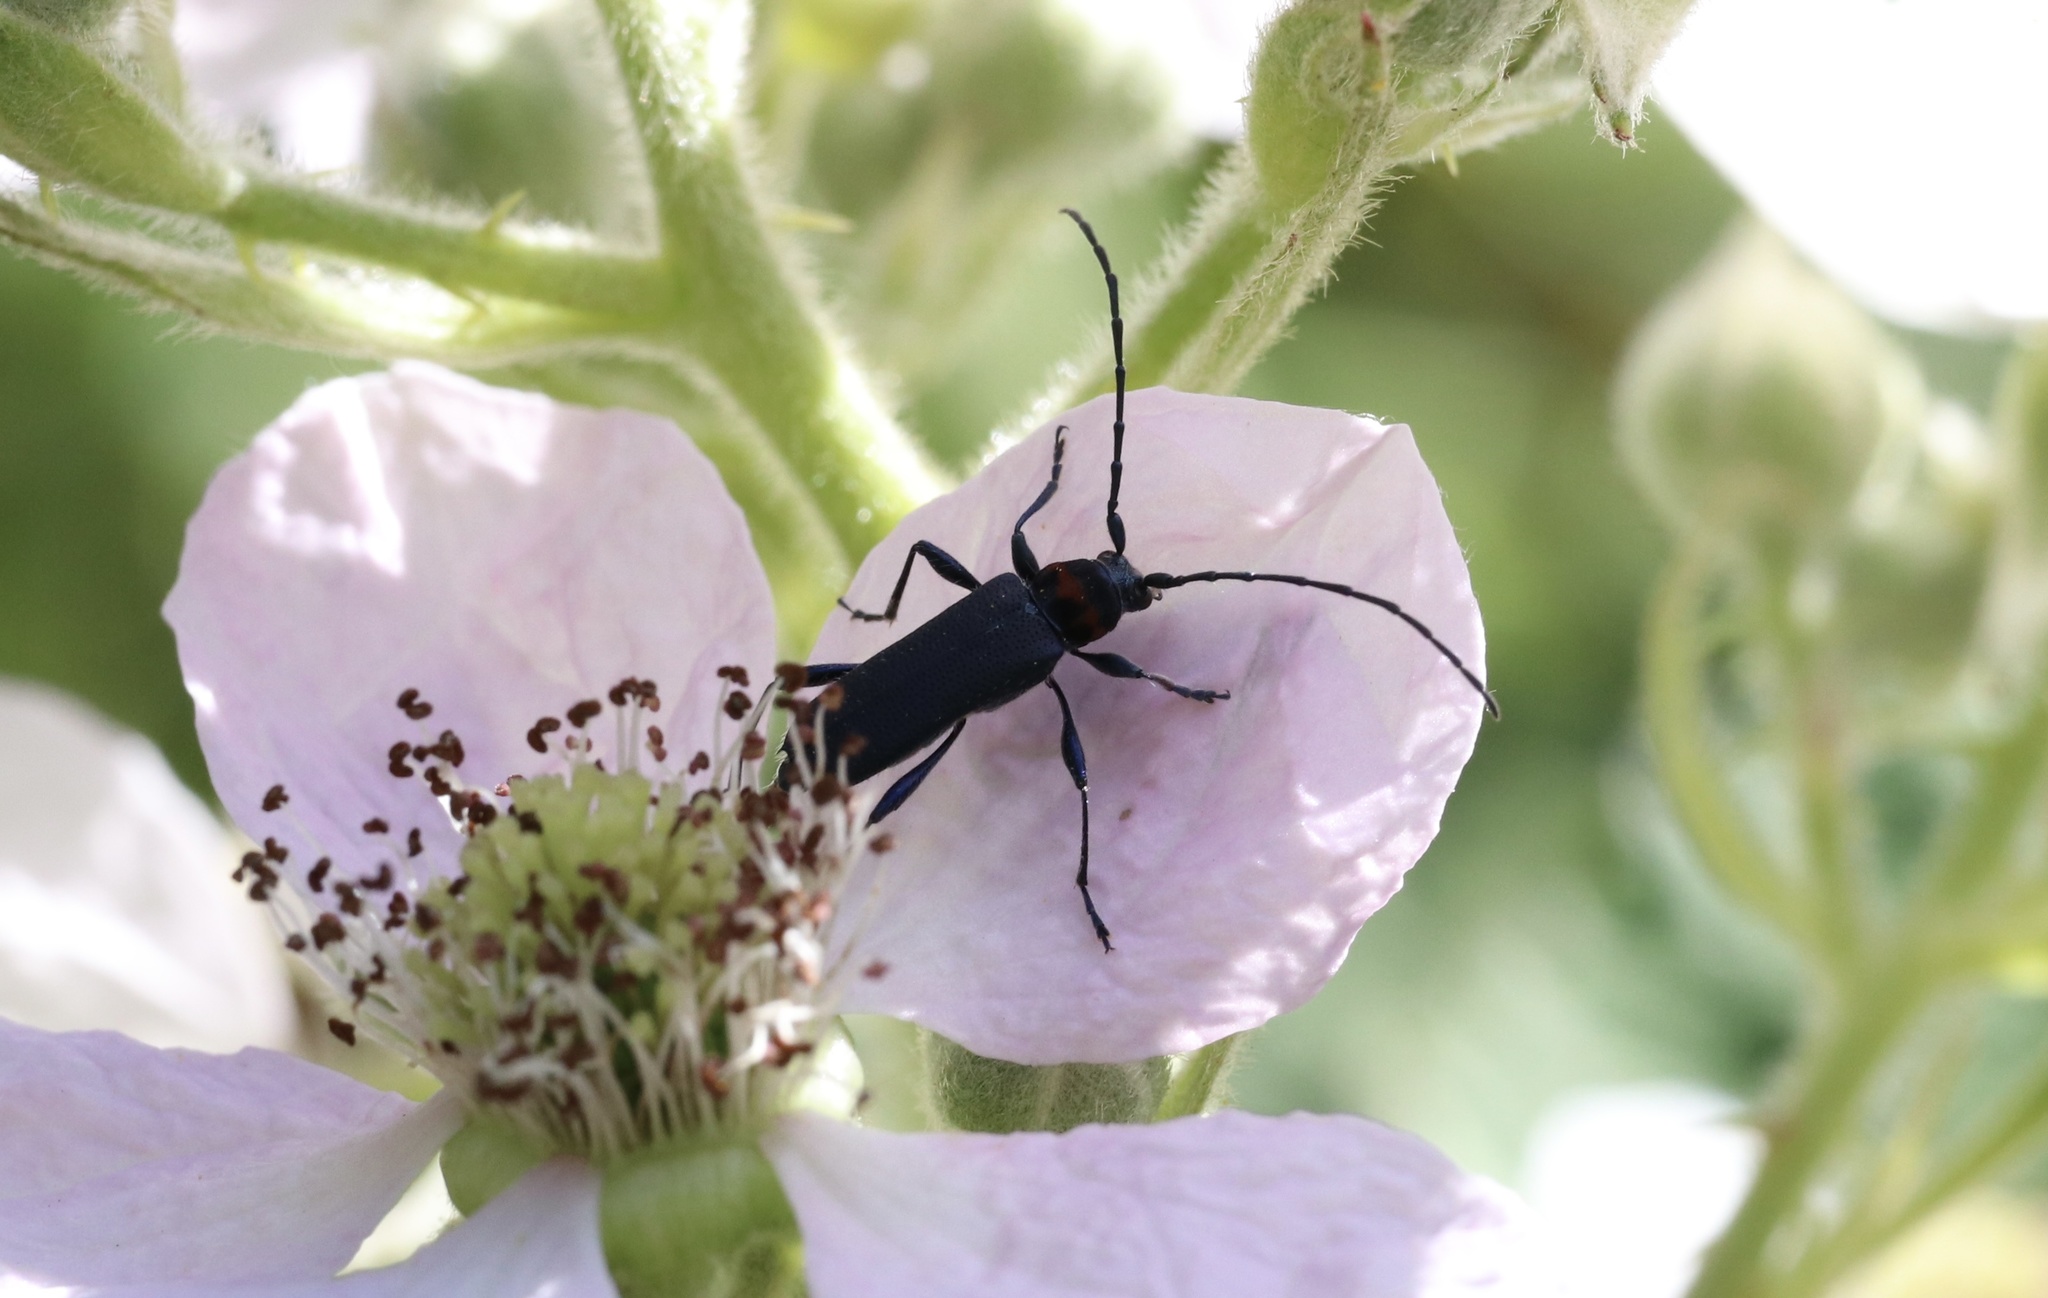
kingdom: Animalia
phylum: Arthropoda
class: Insecta
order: Coleoptera
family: Cerambycidae
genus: Eryphus
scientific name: Eryphus laetus
